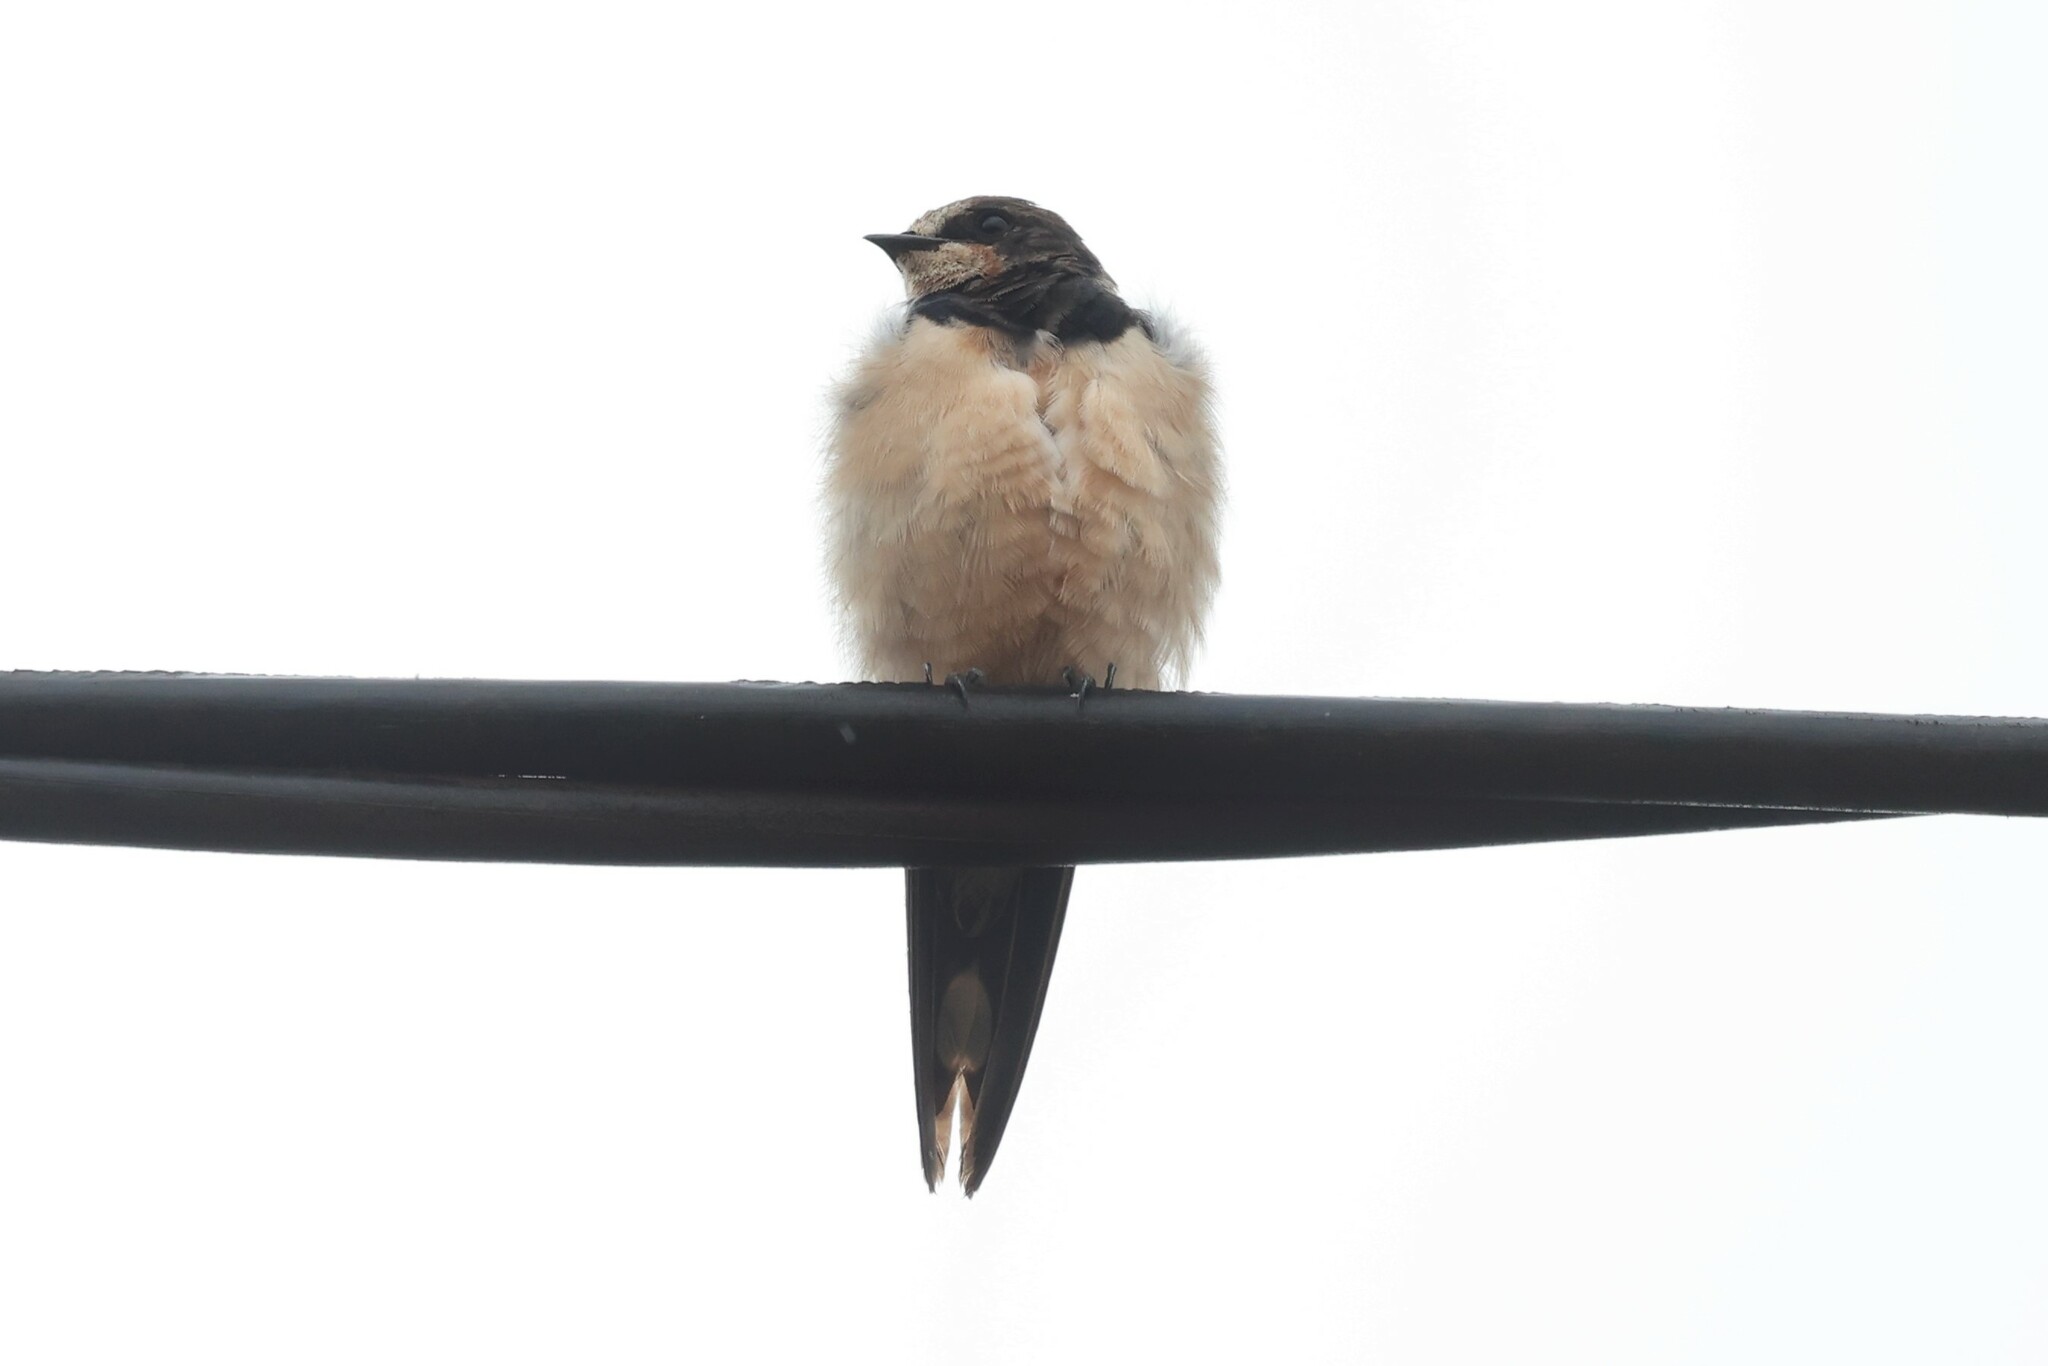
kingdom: Animalia
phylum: Chordata
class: Aves
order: Passeriformes
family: Hirundinidae
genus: Hirundo
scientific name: Hirundo rustica
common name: Barn swallow
